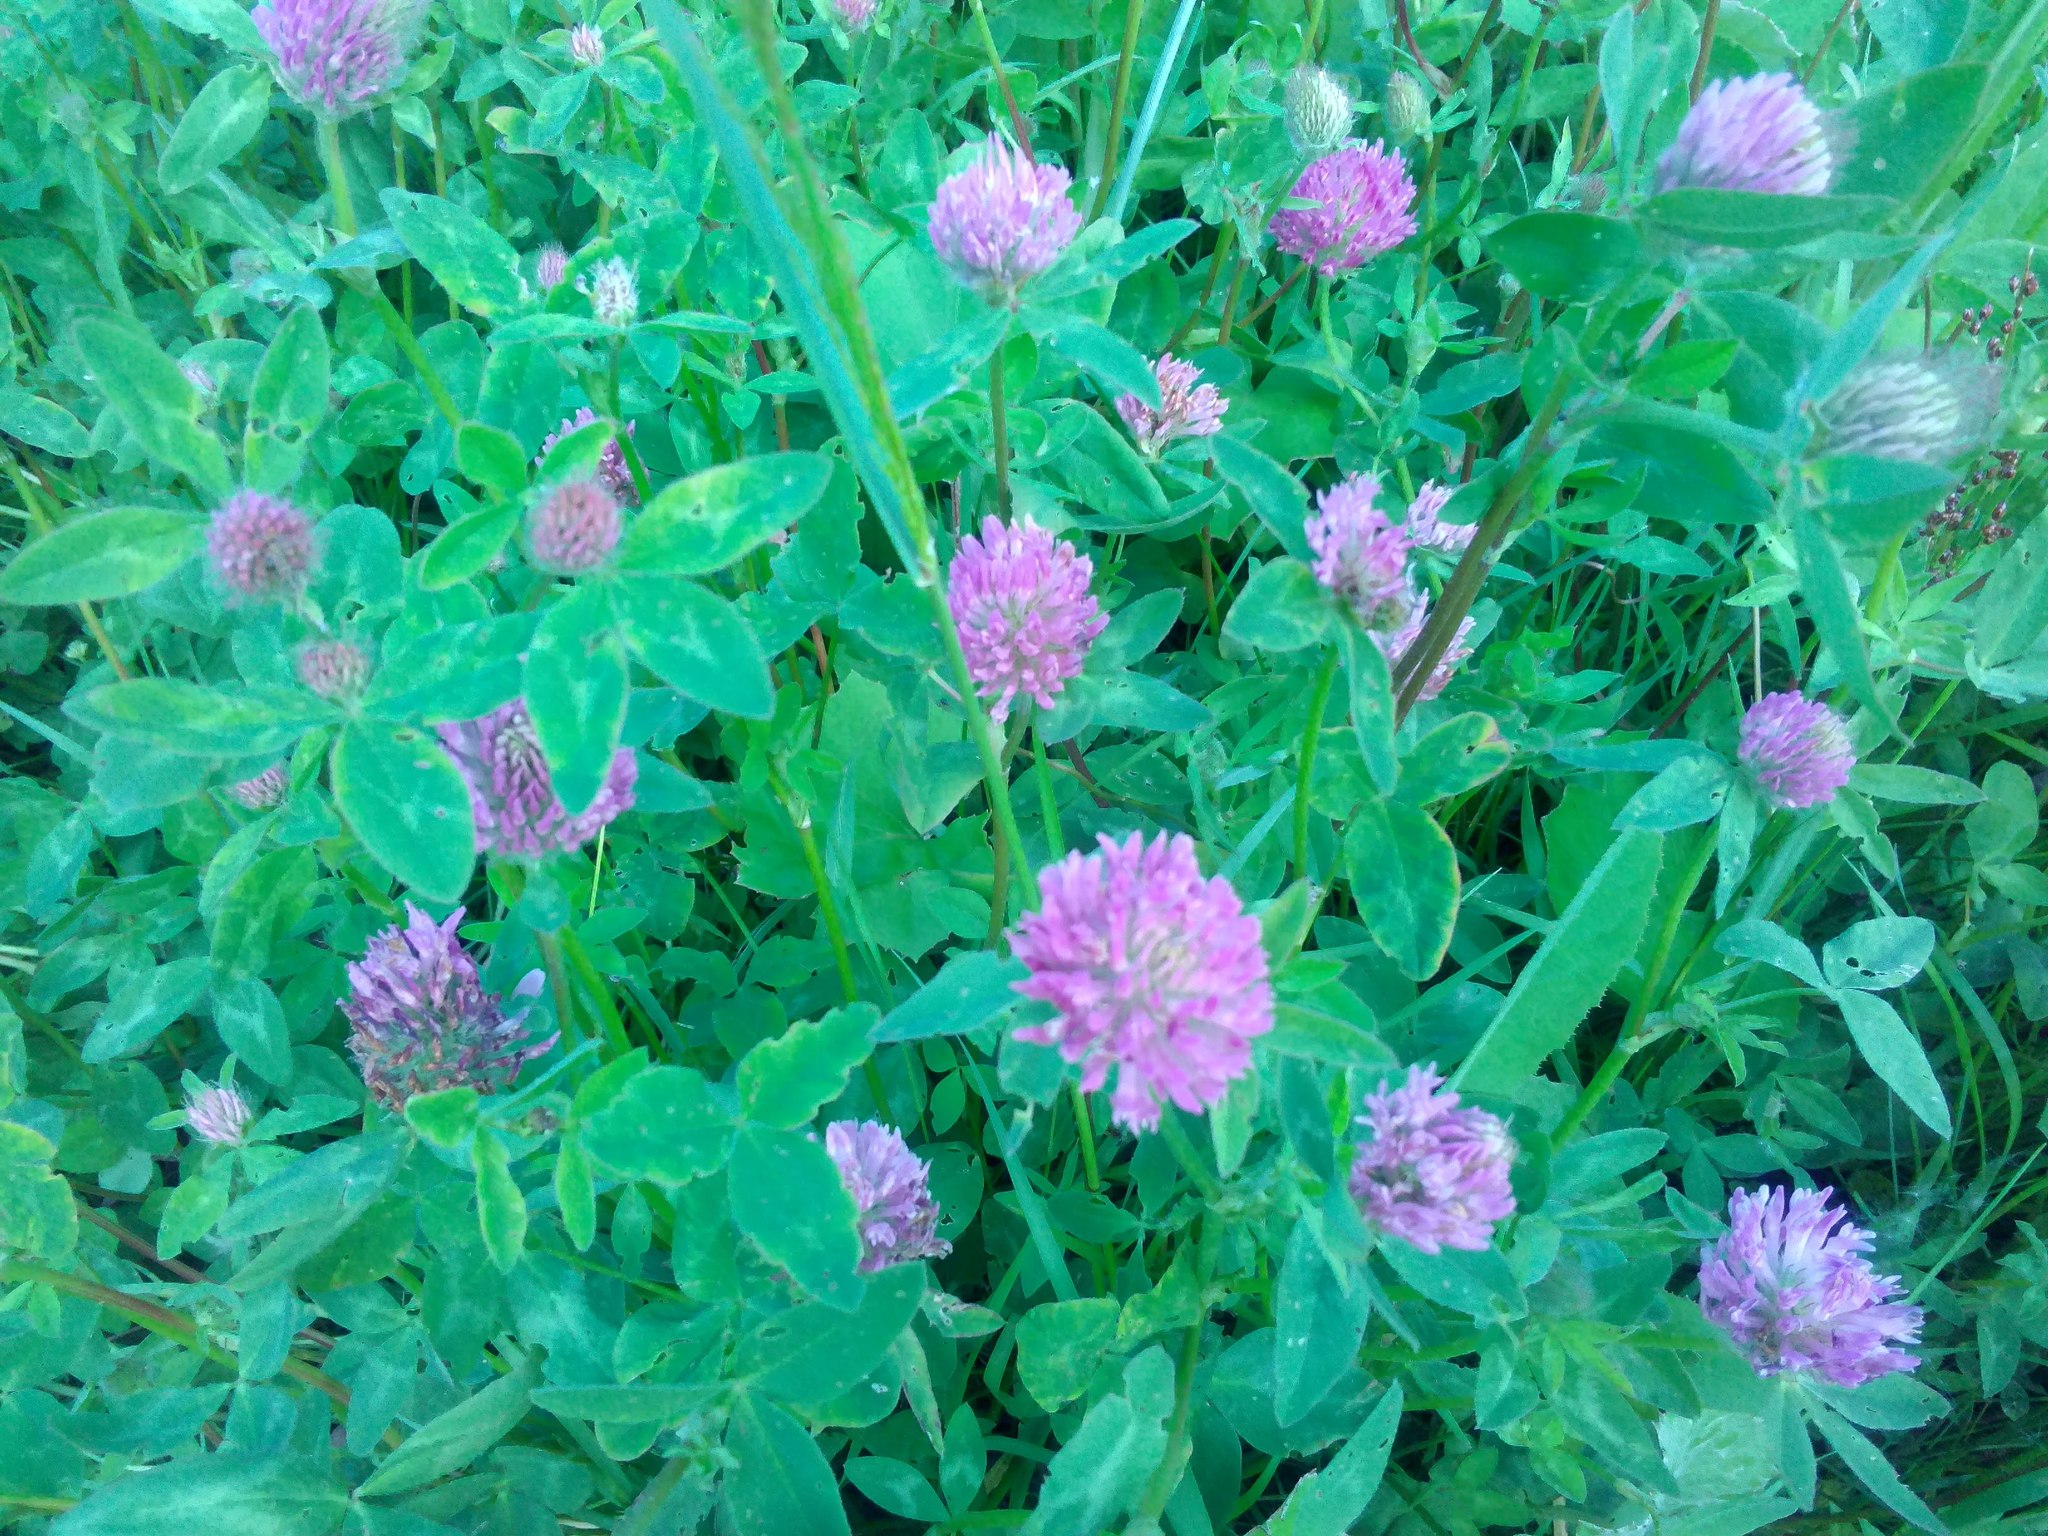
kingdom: Plantae
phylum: Tracheophyta
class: Magnoliopsida
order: Fabales
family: Fabaceae
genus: Trifolium
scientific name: Trifolium pratense
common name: Red clover
